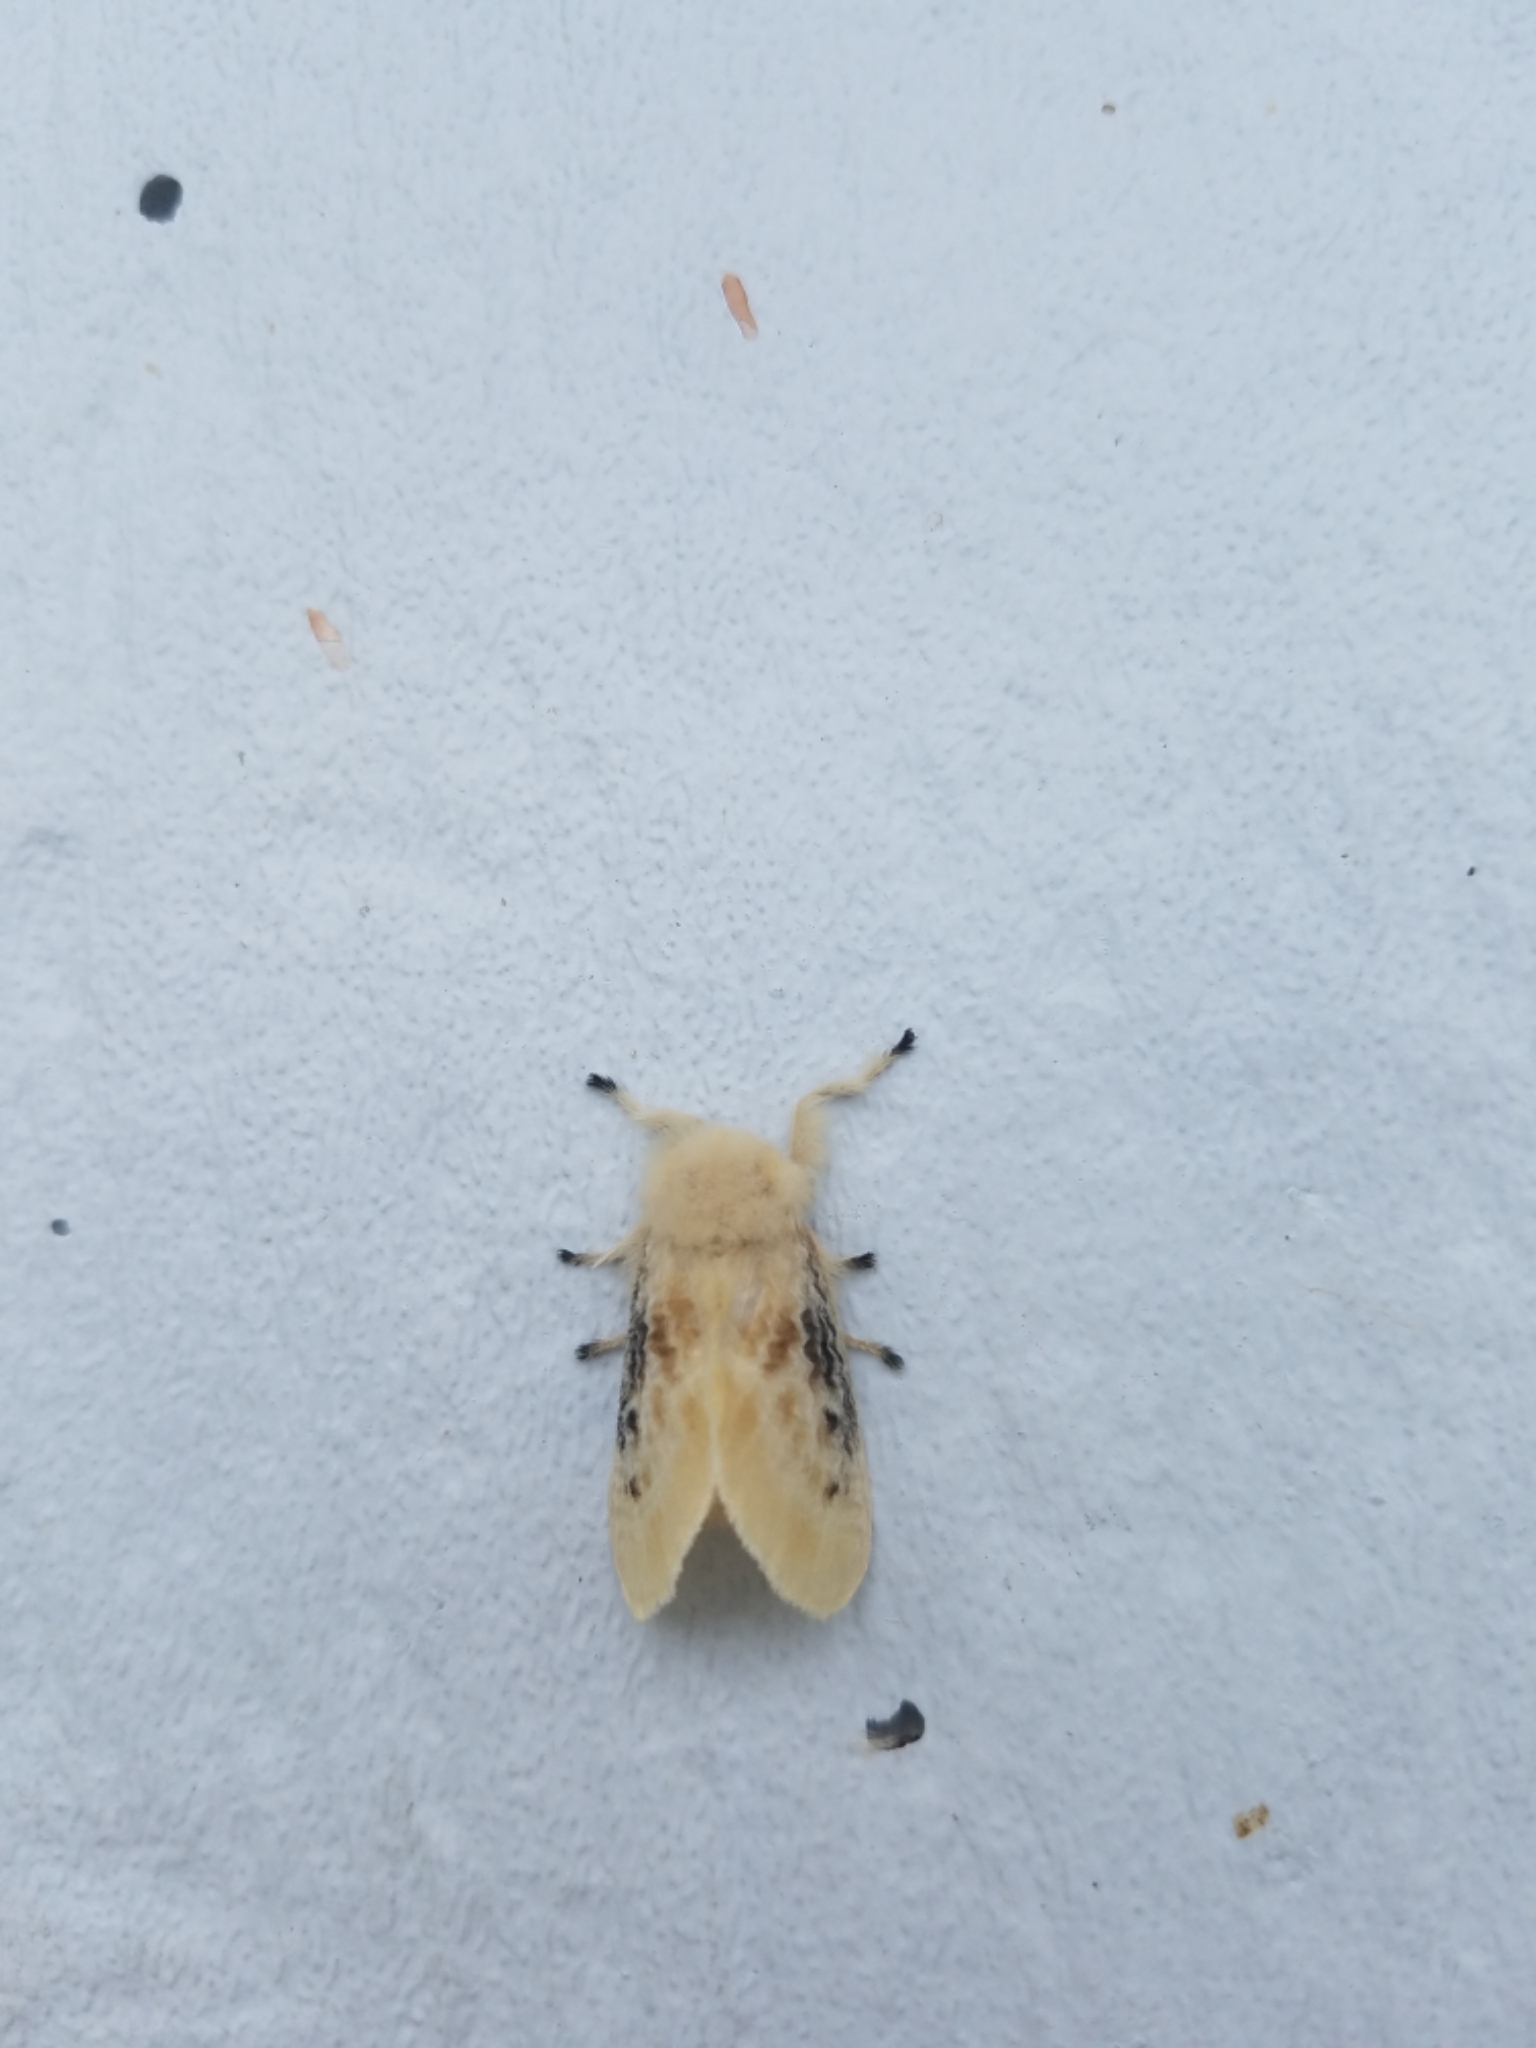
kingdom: Animalia
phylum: Arthropoda
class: Insecta
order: Lepidoptera
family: Megalopygidae
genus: Megalopyge
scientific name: Megalopyge crispata
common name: Black-waved flannel moth
